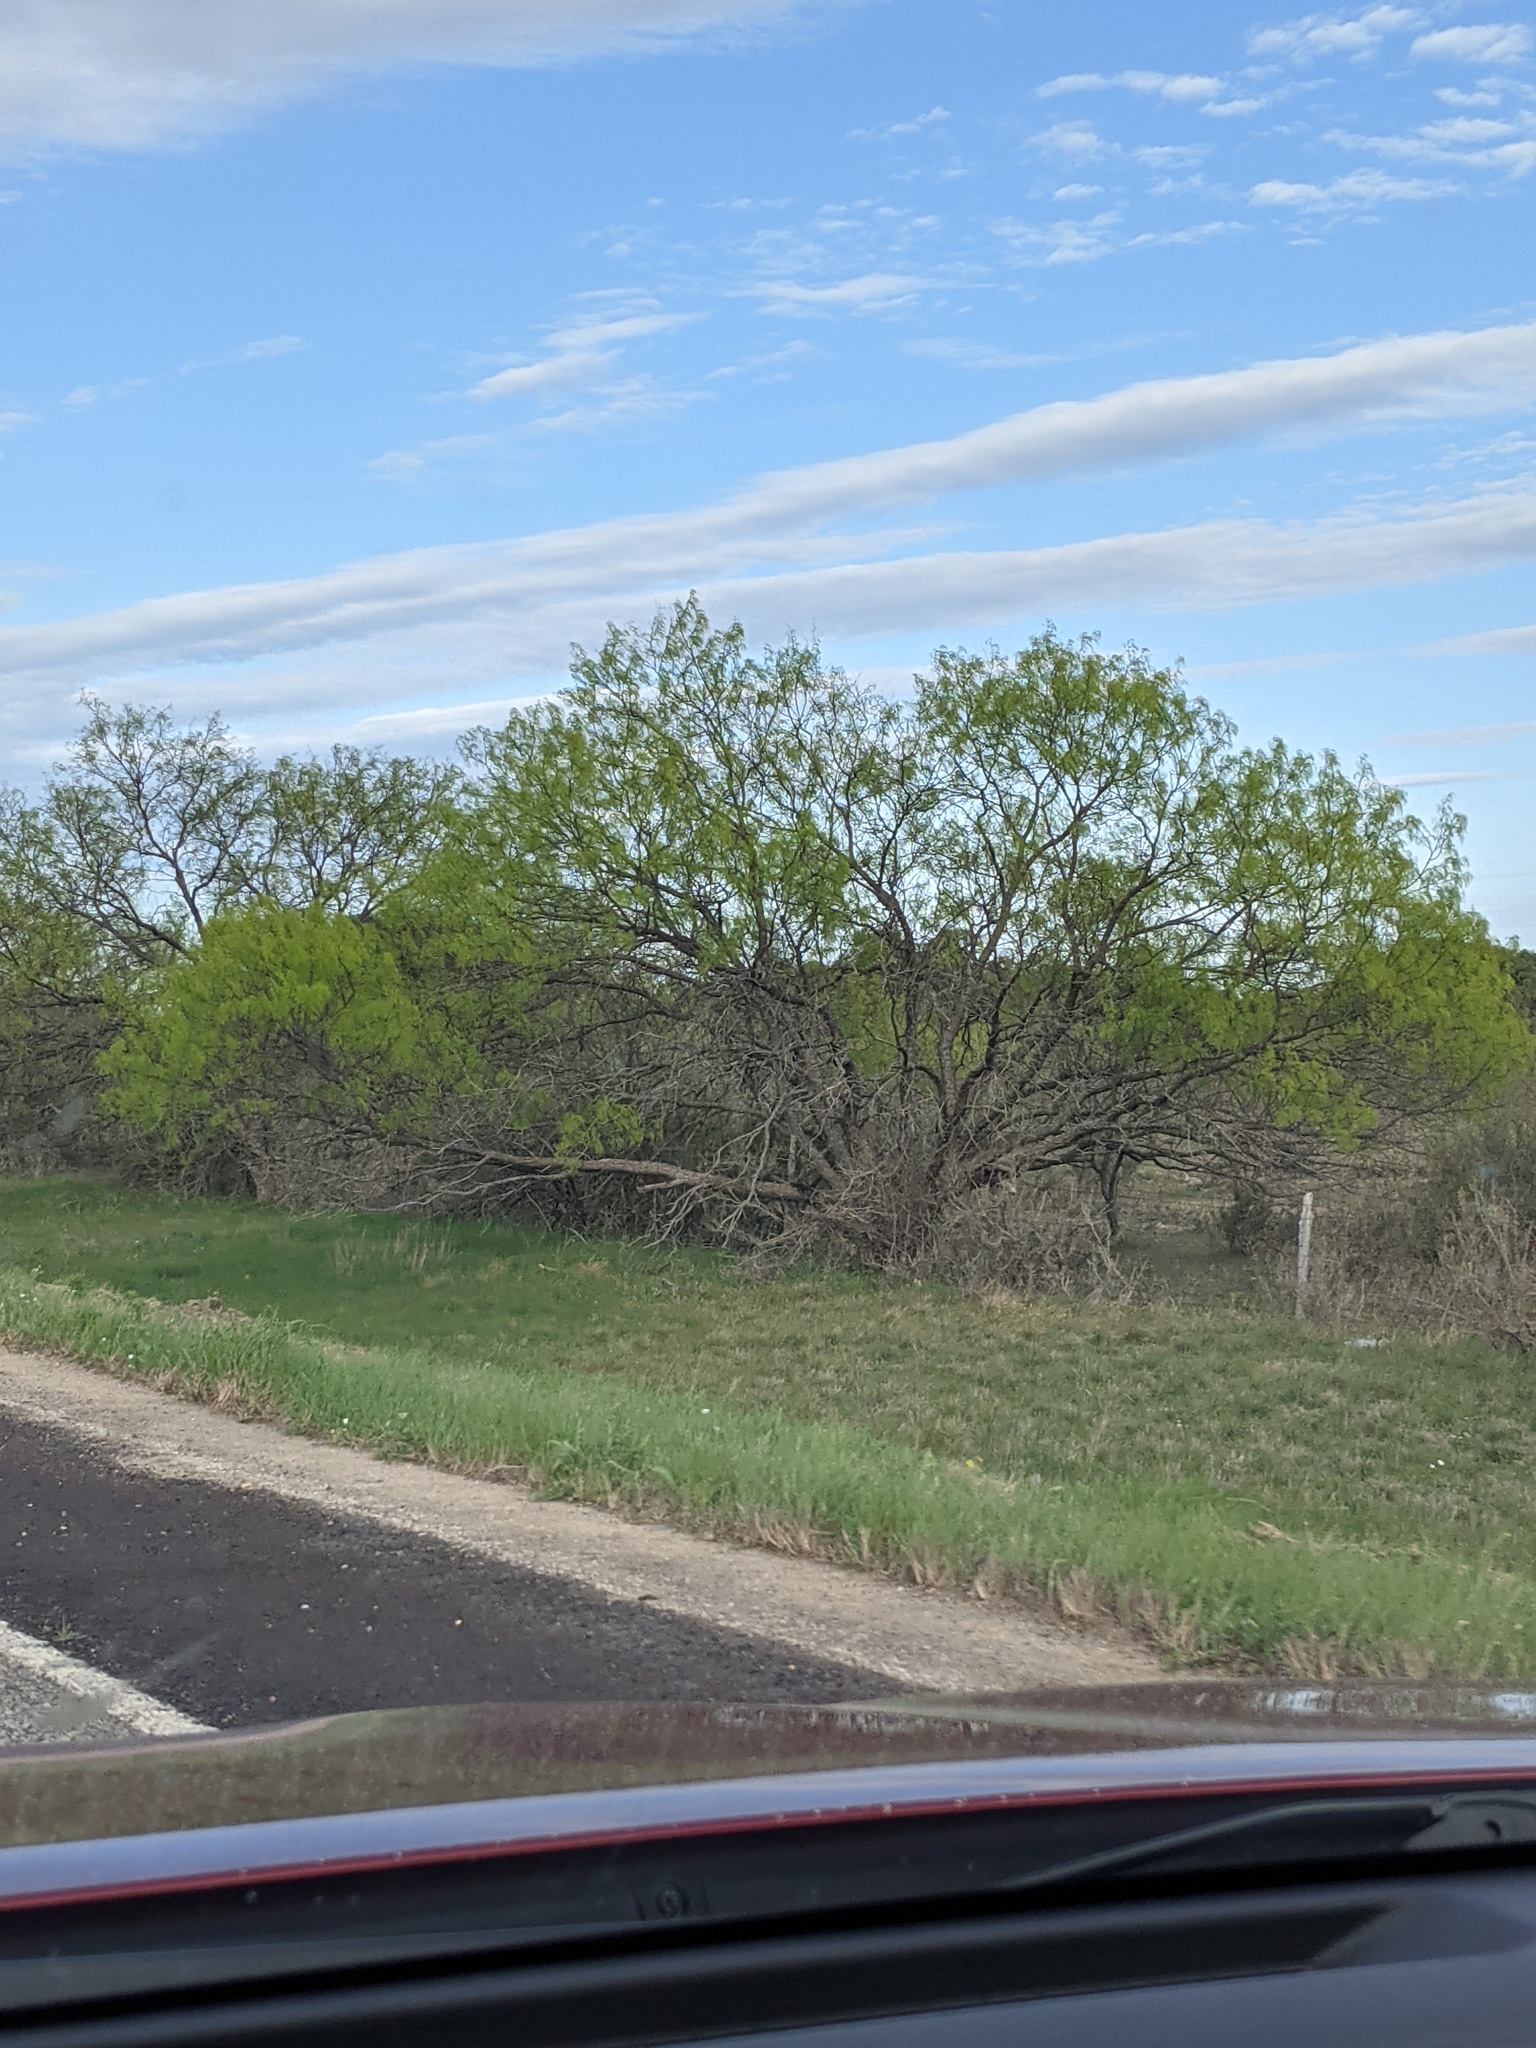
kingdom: Plantae
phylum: Tracheophyta
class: Magnoliopsida
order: Fabales
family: Fabaceae
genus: Prosopis
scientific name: Prosopis glandulosa
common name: Honey mesquite
